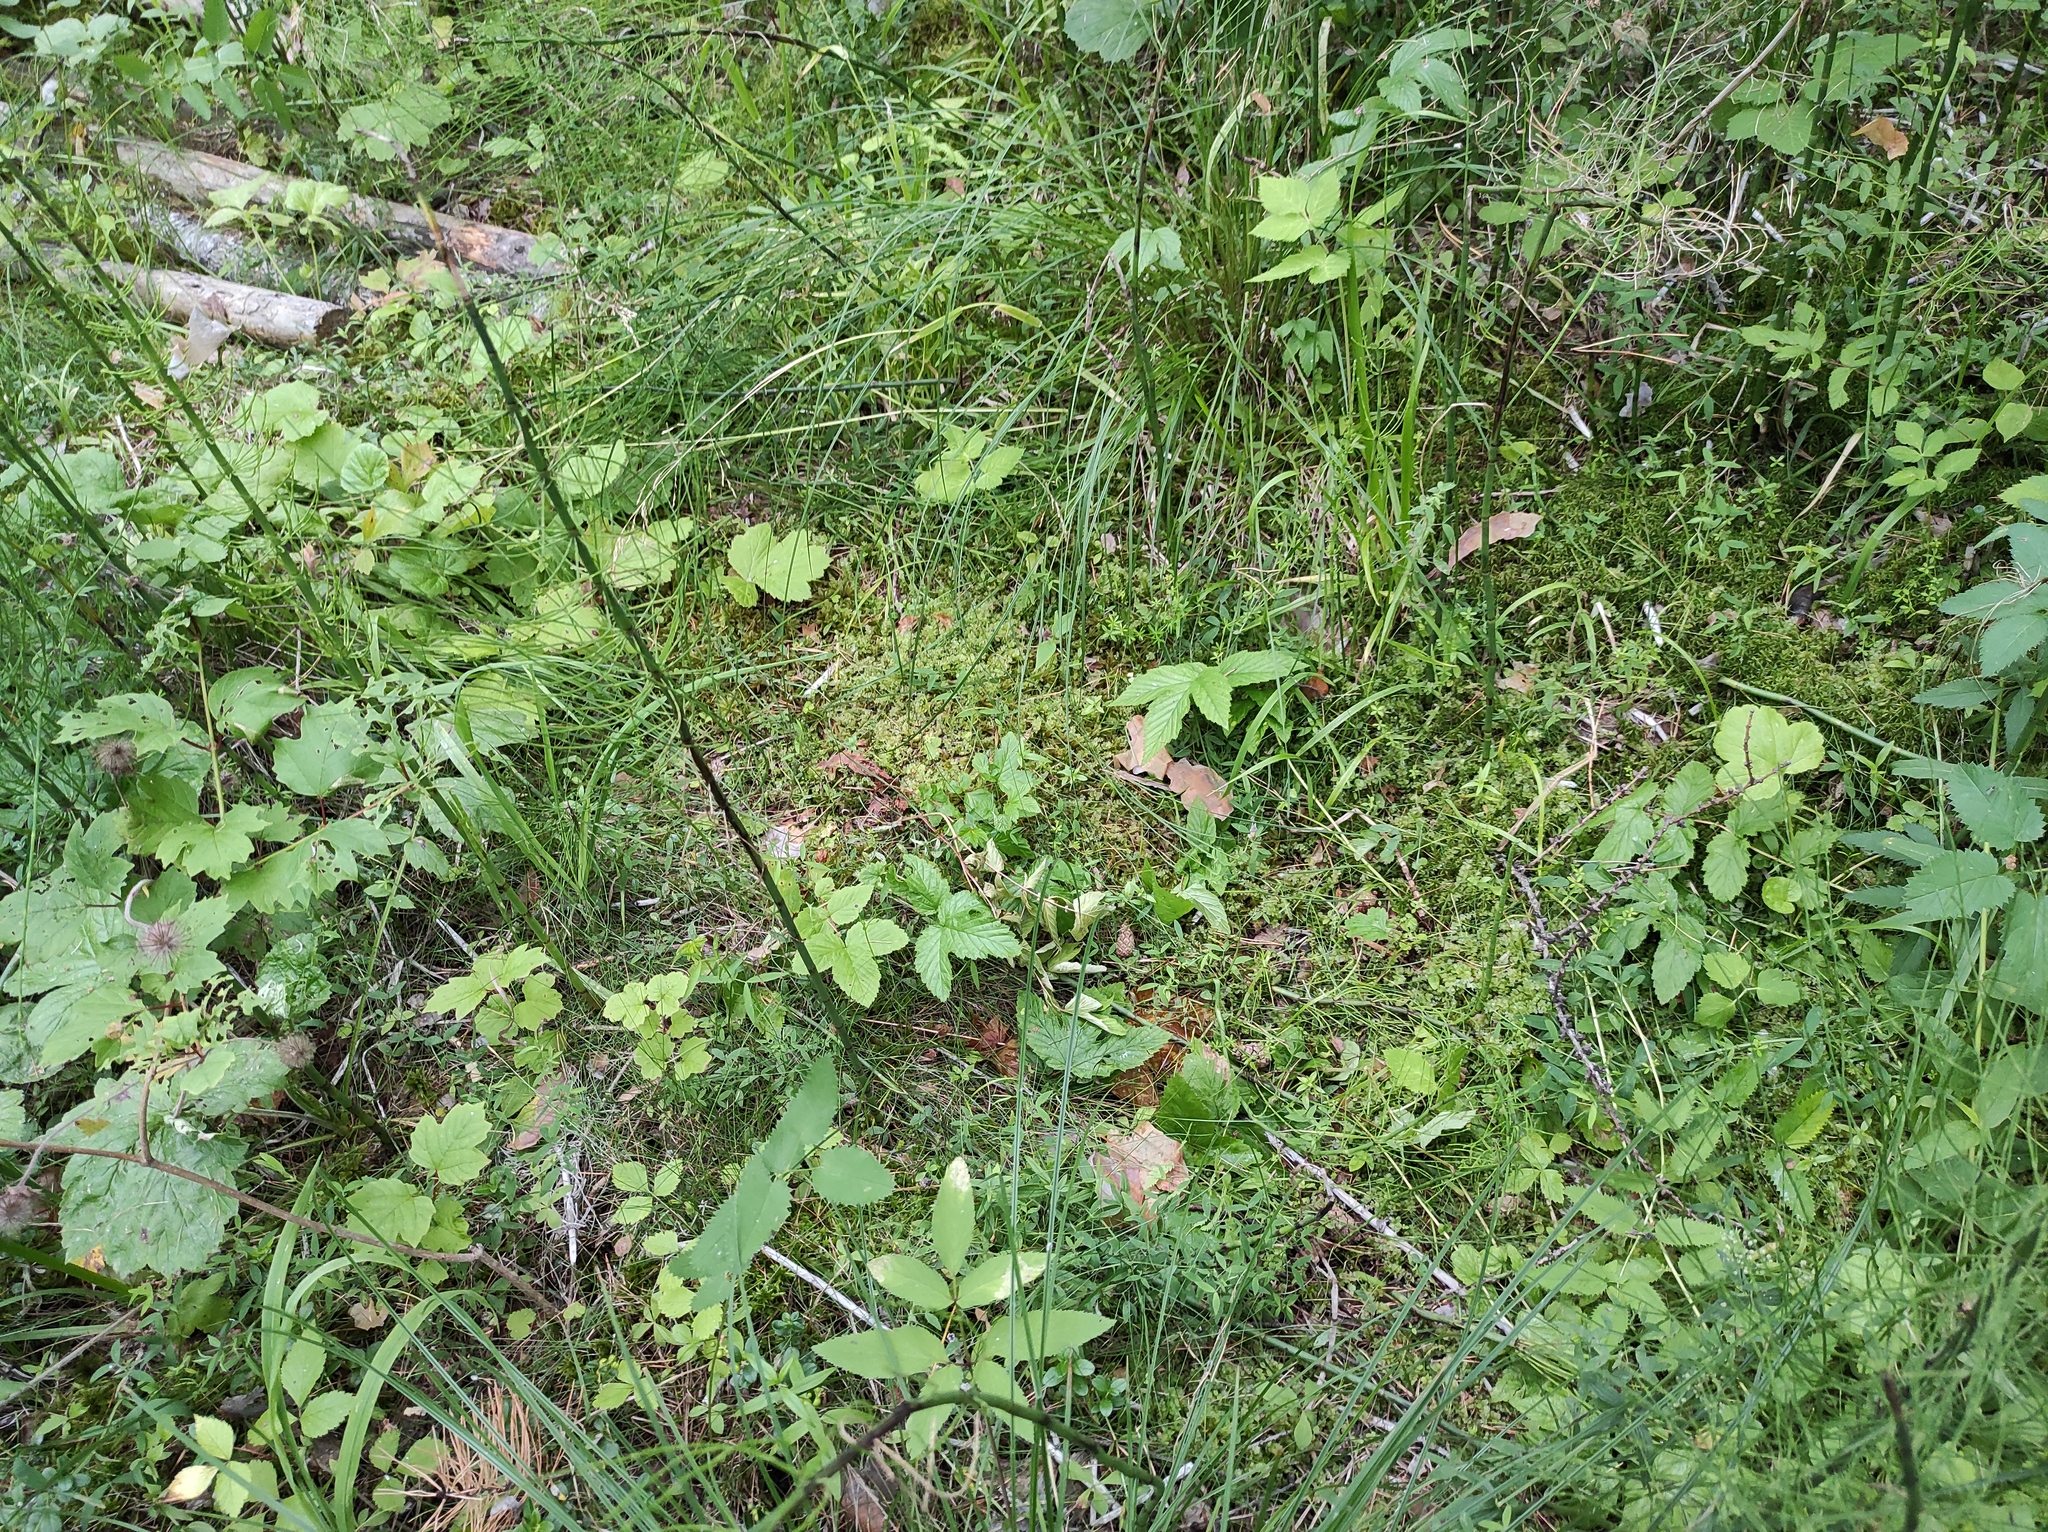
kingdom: Plantae
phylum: Tracheophyta
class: Magnoliopsida
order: Rosales
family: Rosaceae
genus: Filipendula
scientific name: Filipendula ulmaria
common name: Meadowsweet
